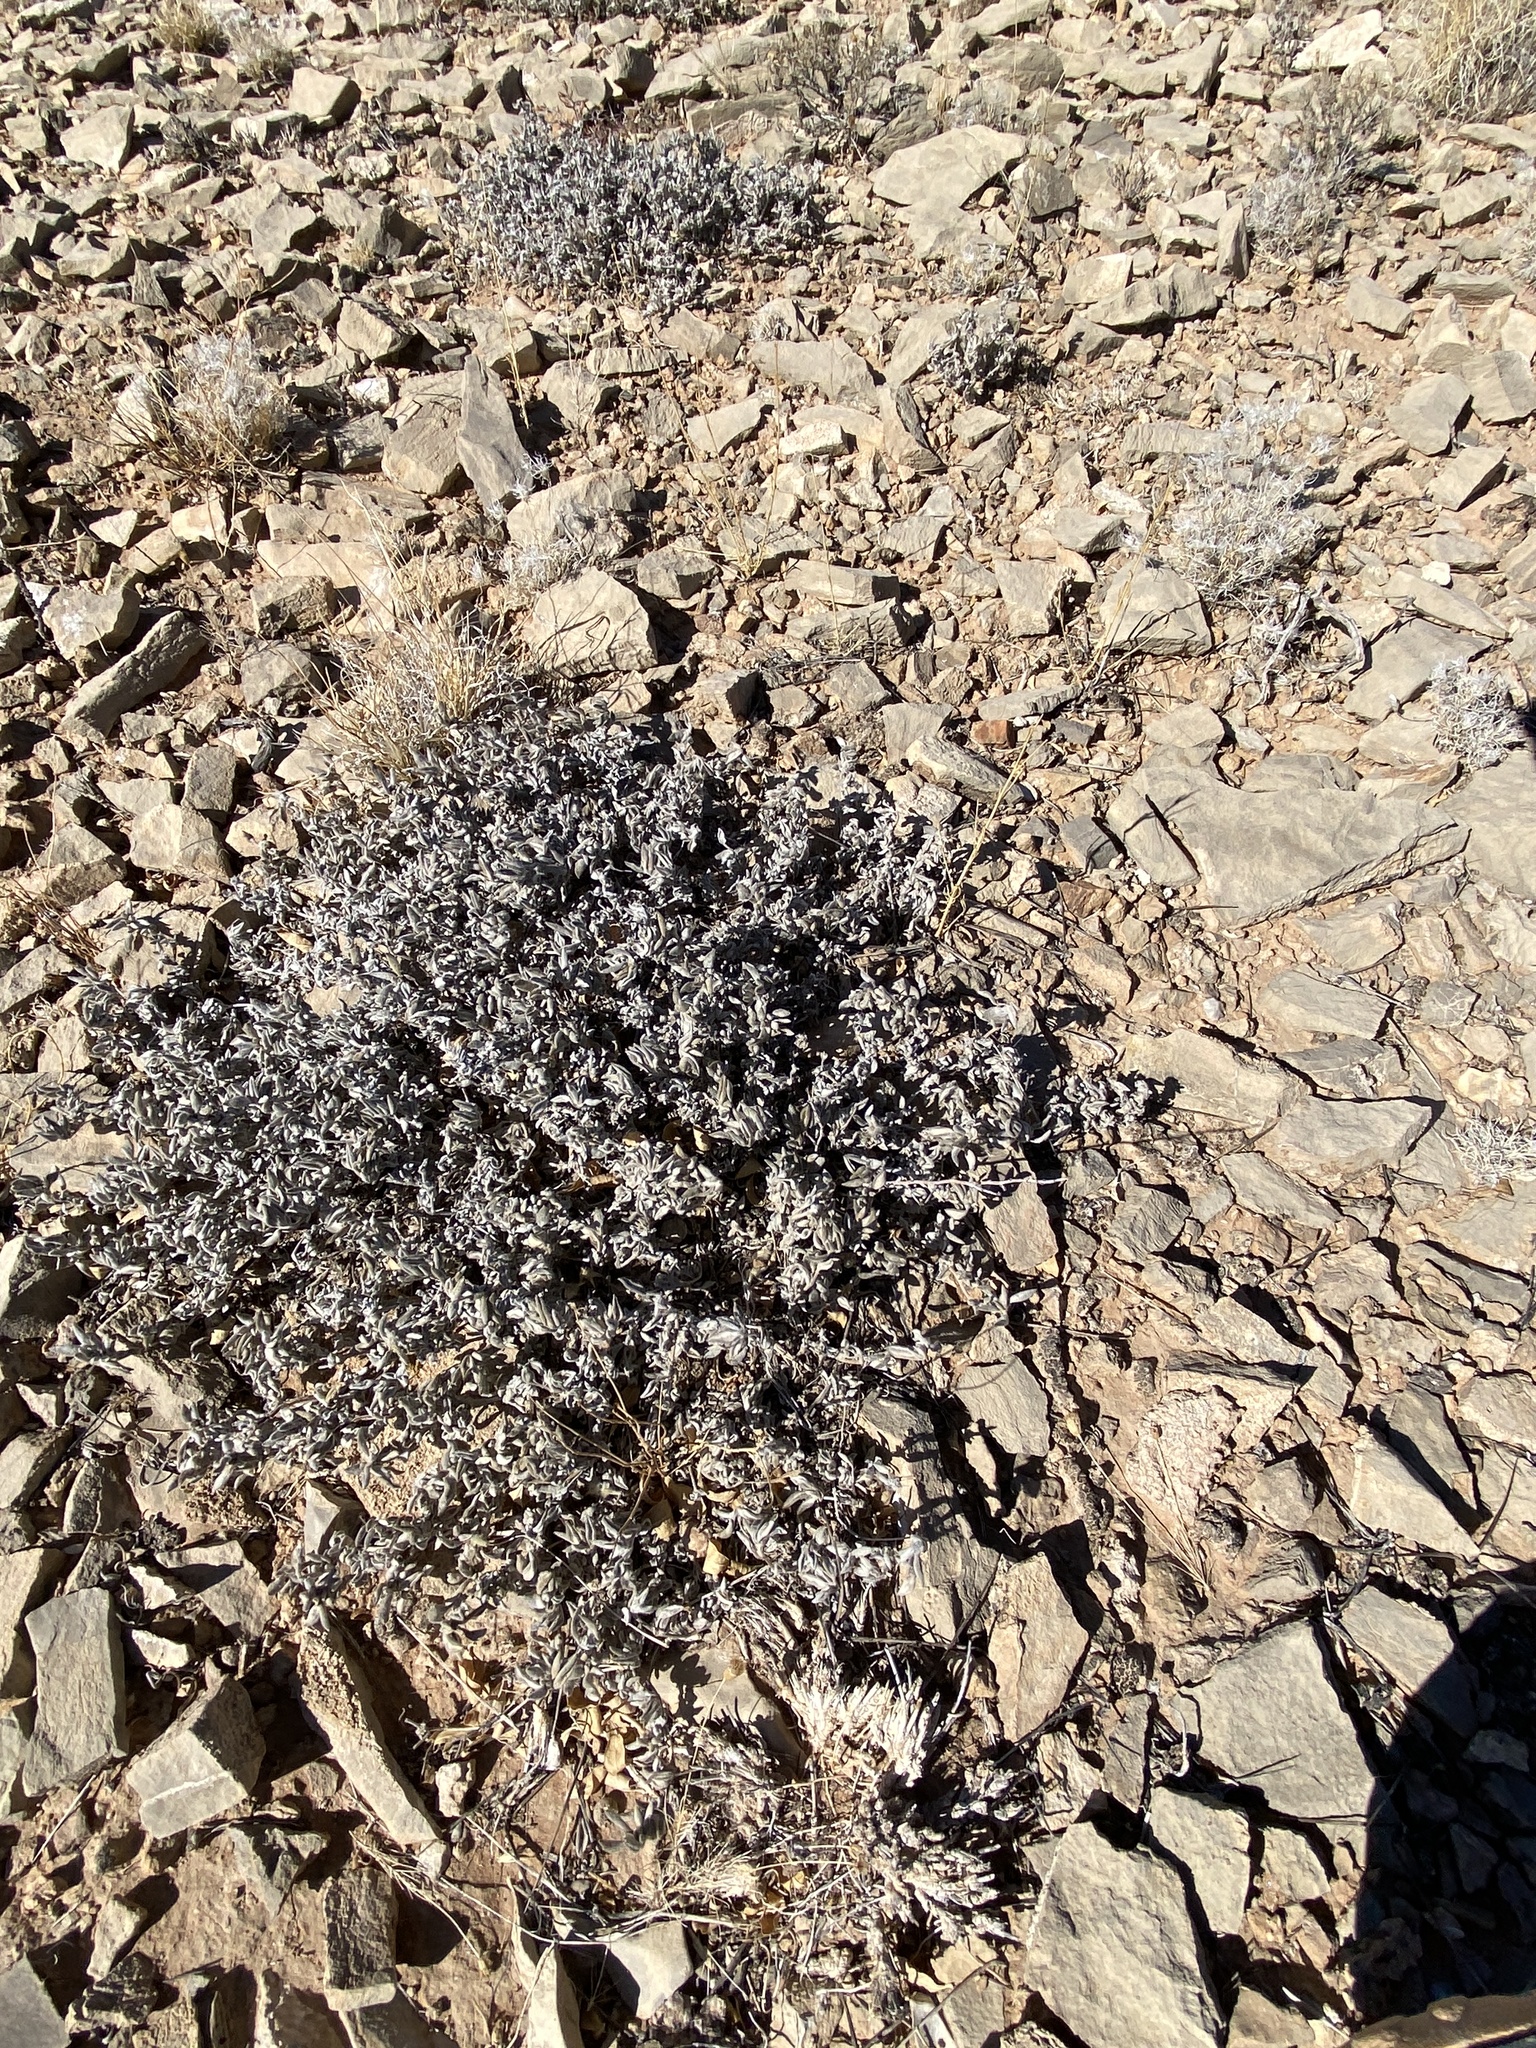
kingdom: Plantae
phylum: Tracheophyta
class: Magnoliopsida
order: Boraginales
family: Ehretiaceae
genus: Tiquilia
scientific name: Tiquilia canescens
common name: Hairy tiquilia
